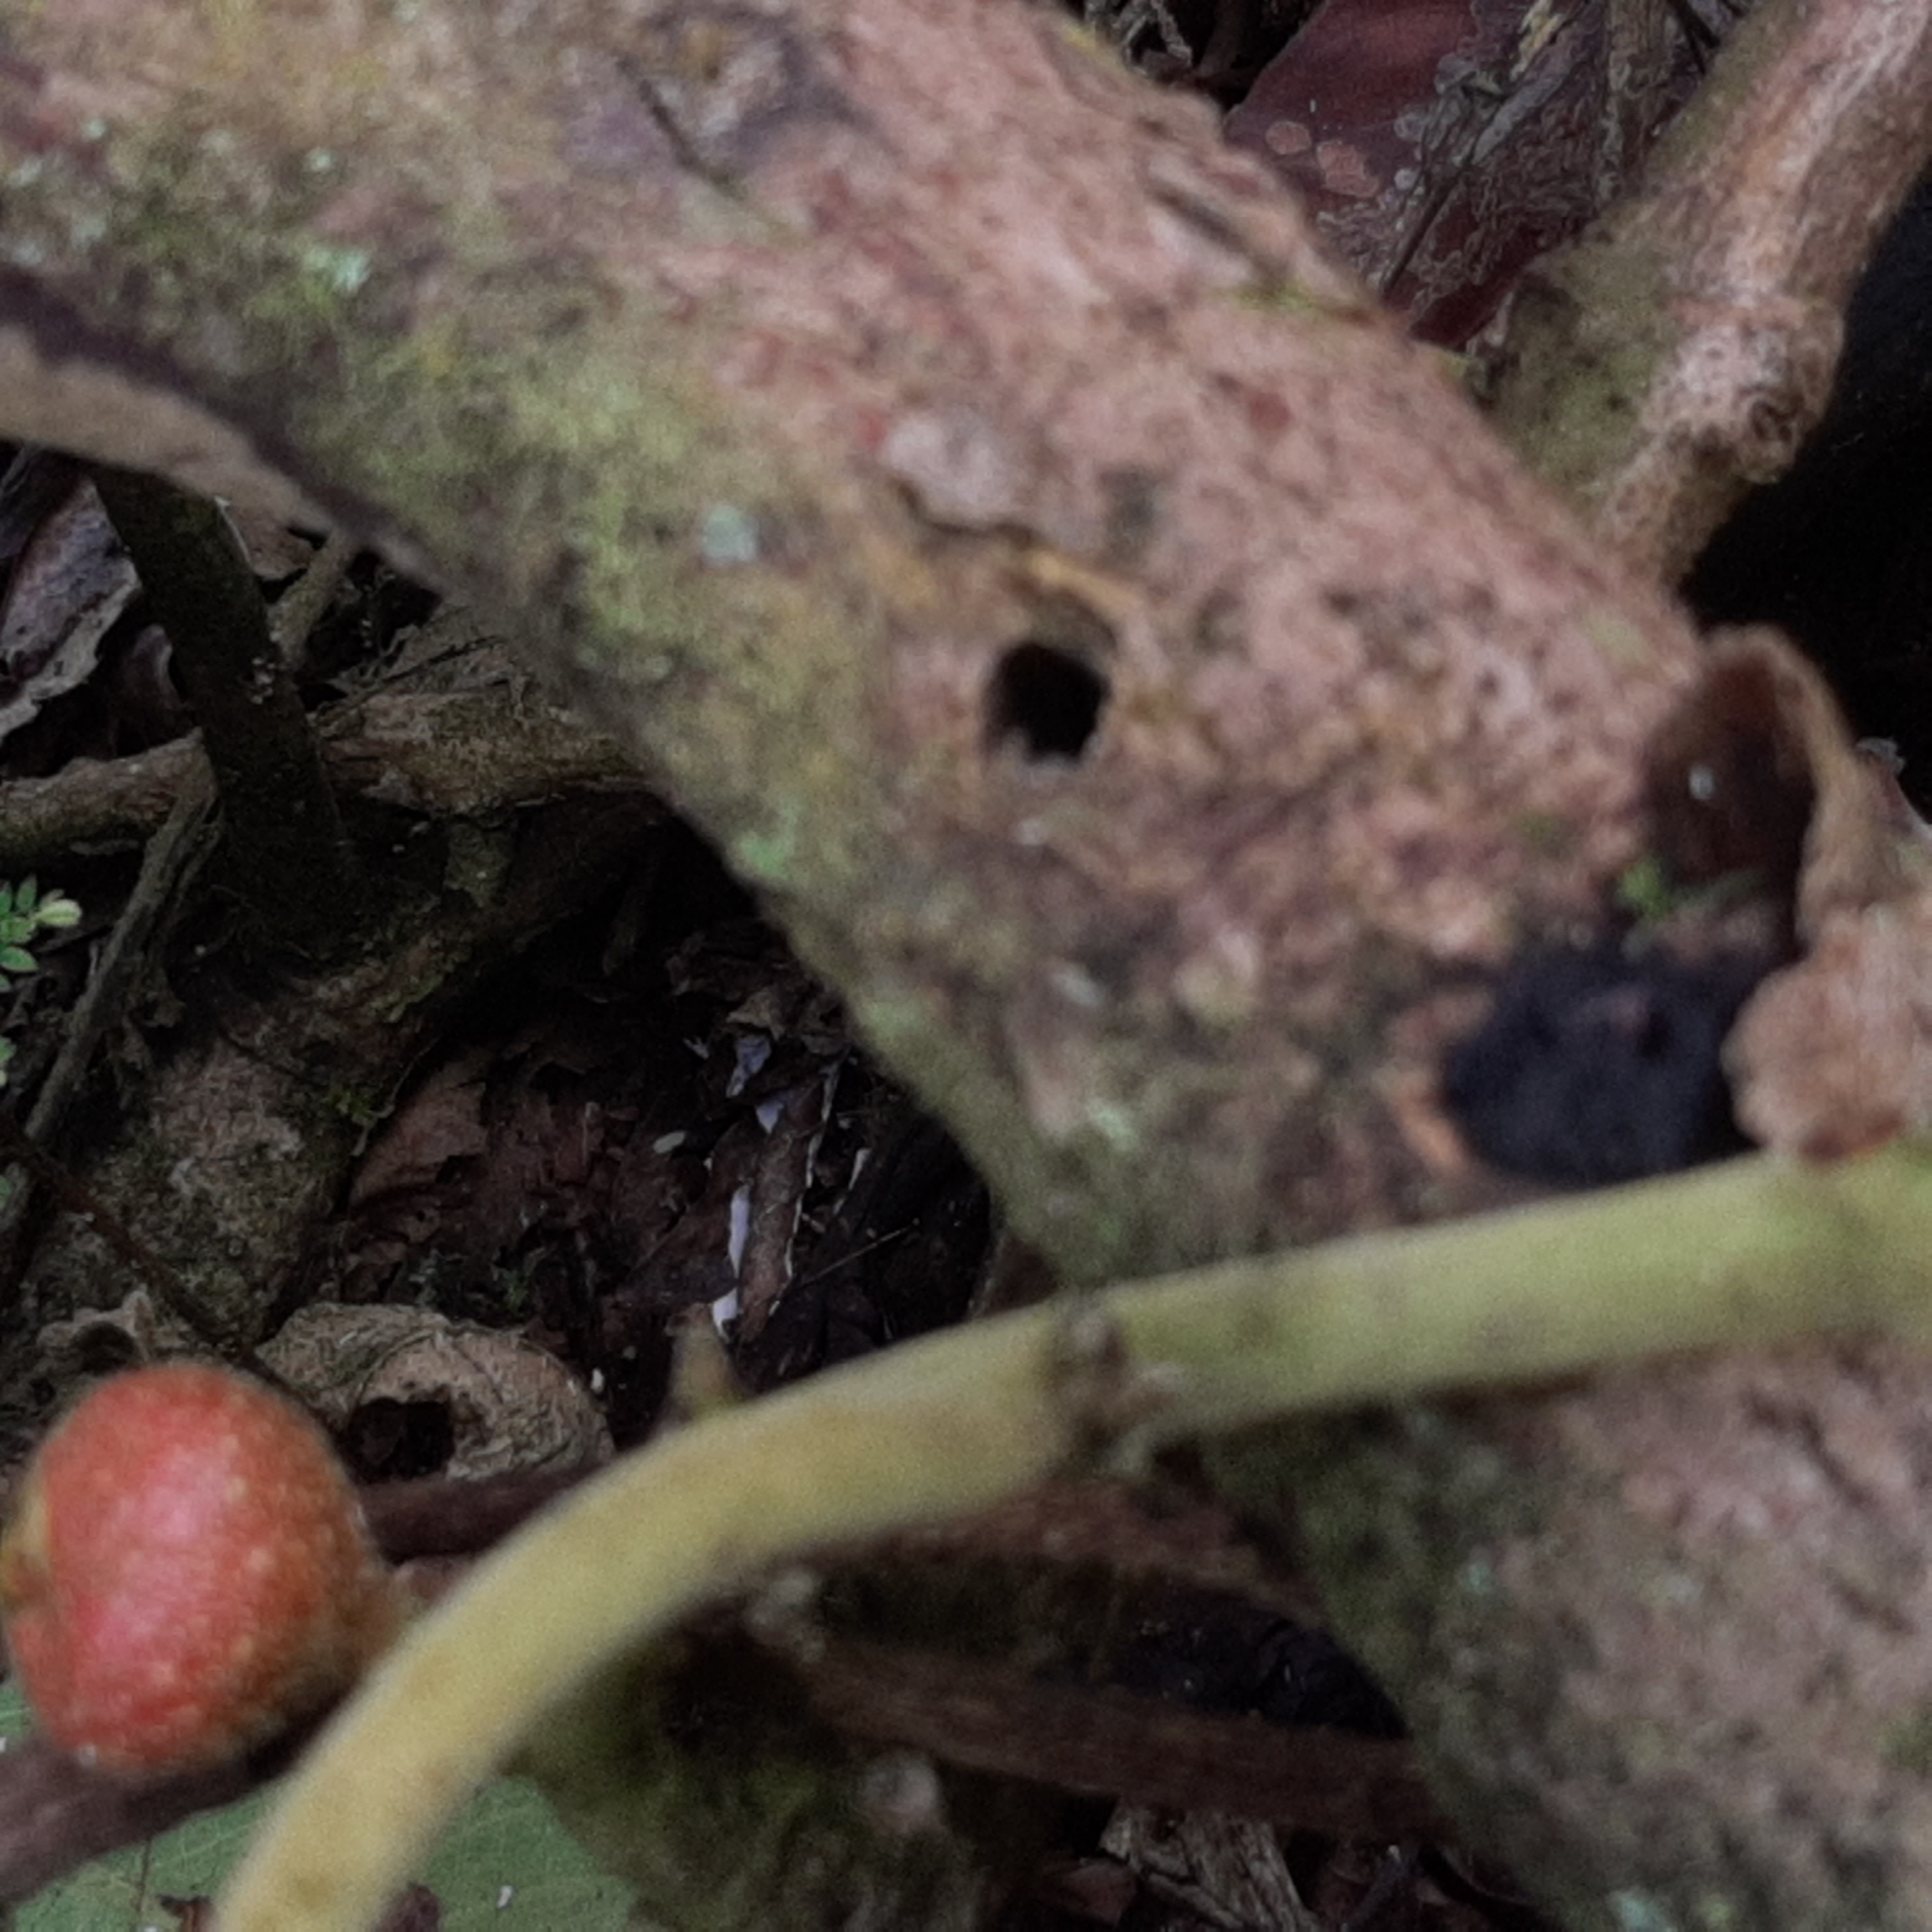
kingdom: Plantae
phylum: Tracheophyta
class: Magnoliopsida
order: Laurales
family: Siparunaceae
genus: Siparuna
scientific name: Siparuna thecaphora
